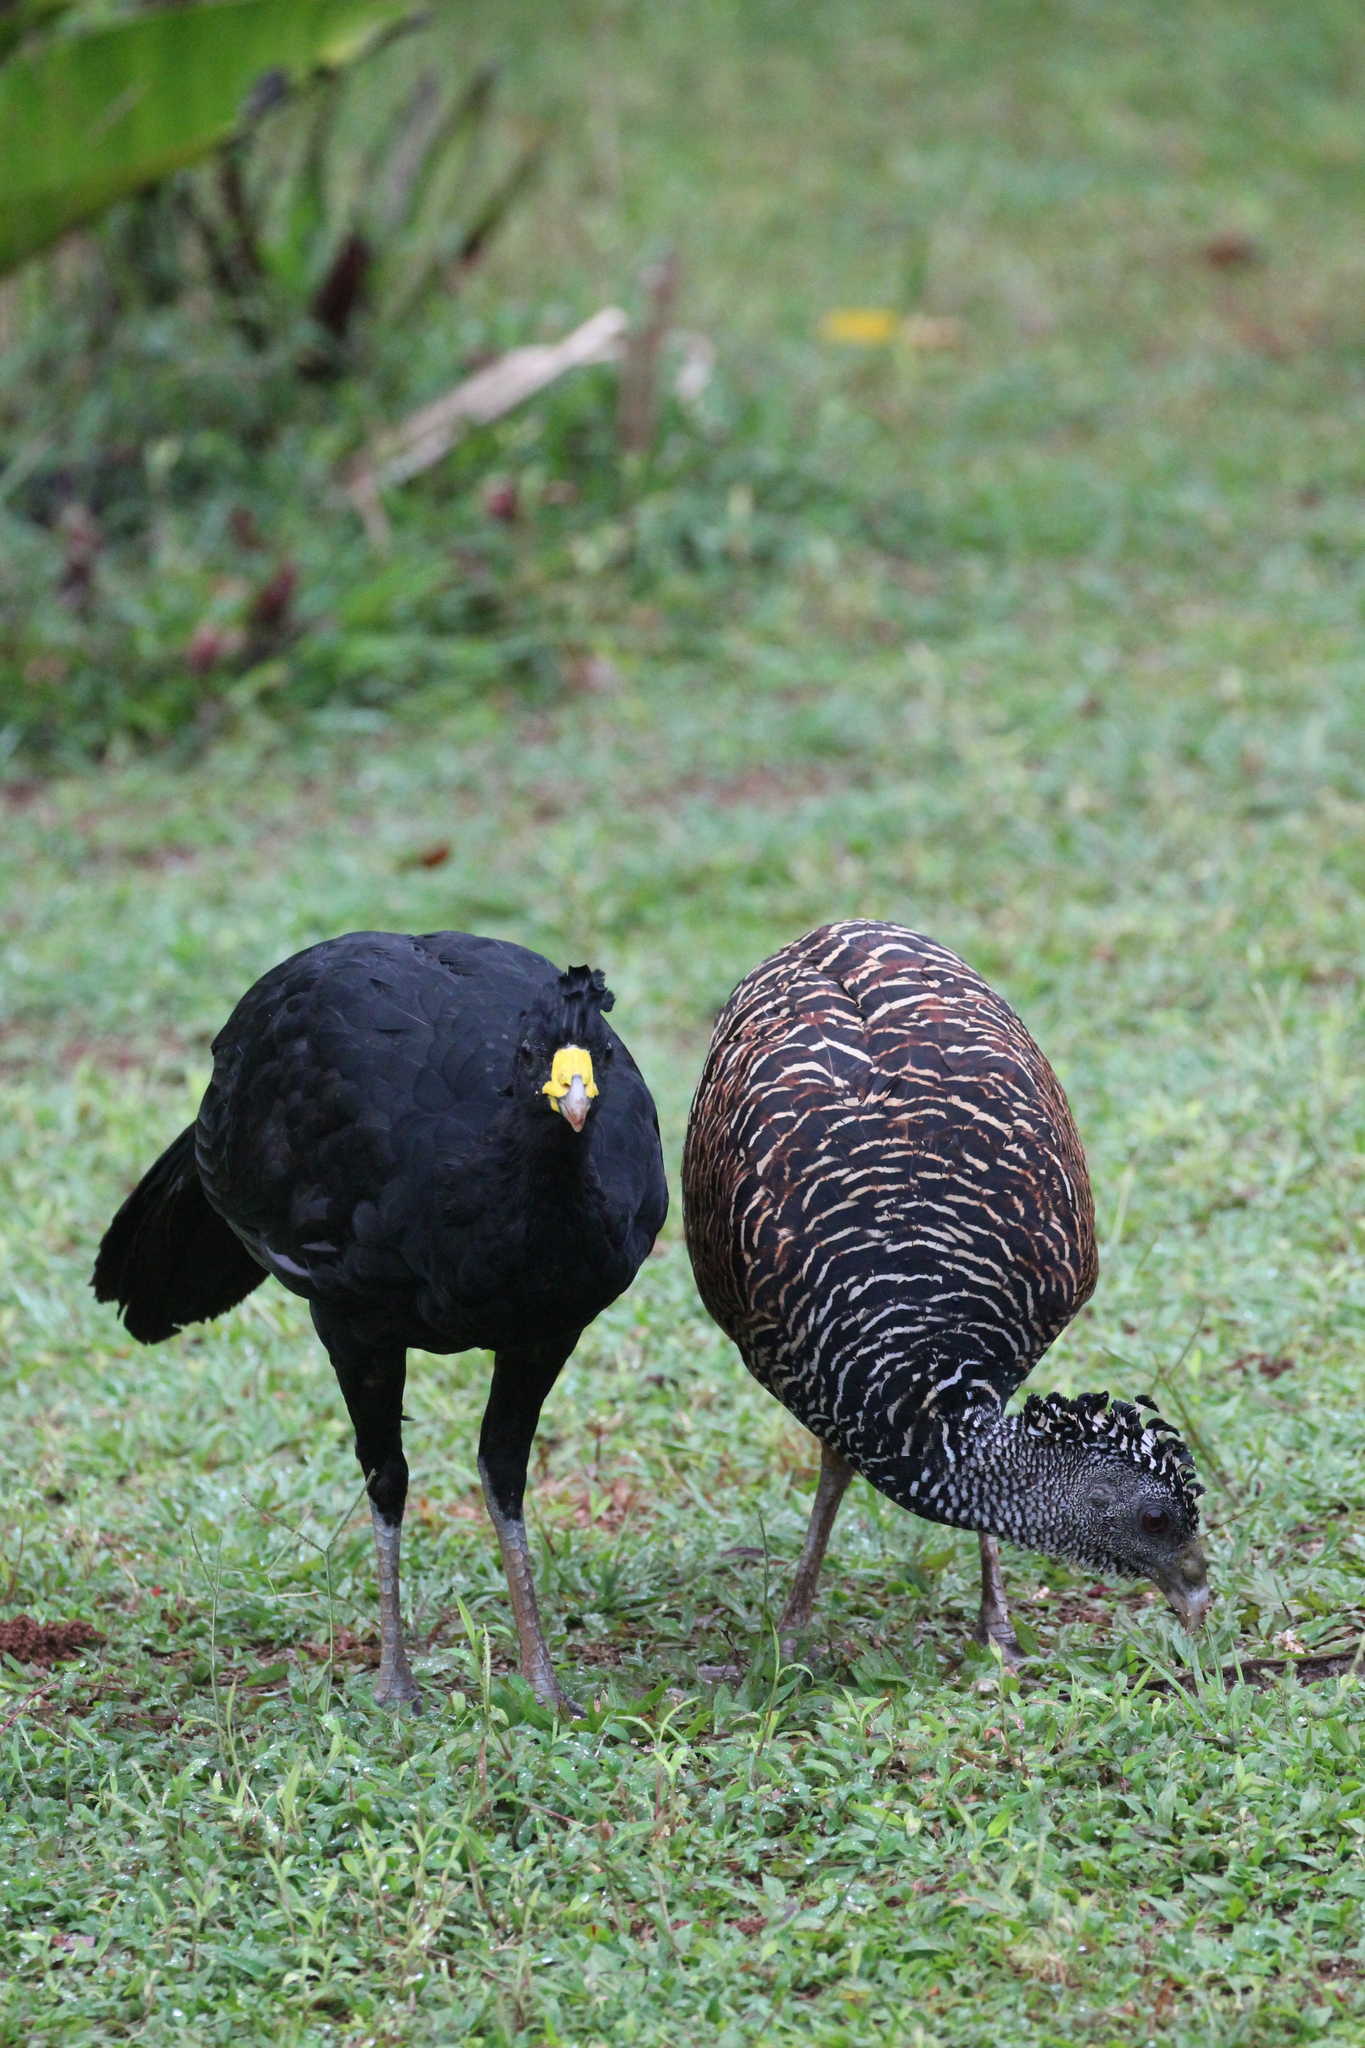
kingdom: Animalia
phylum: Chordata
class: Aves
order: Galliformes
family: Cracidae
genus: Crax
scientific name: Crax rubra
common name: Great curassow
